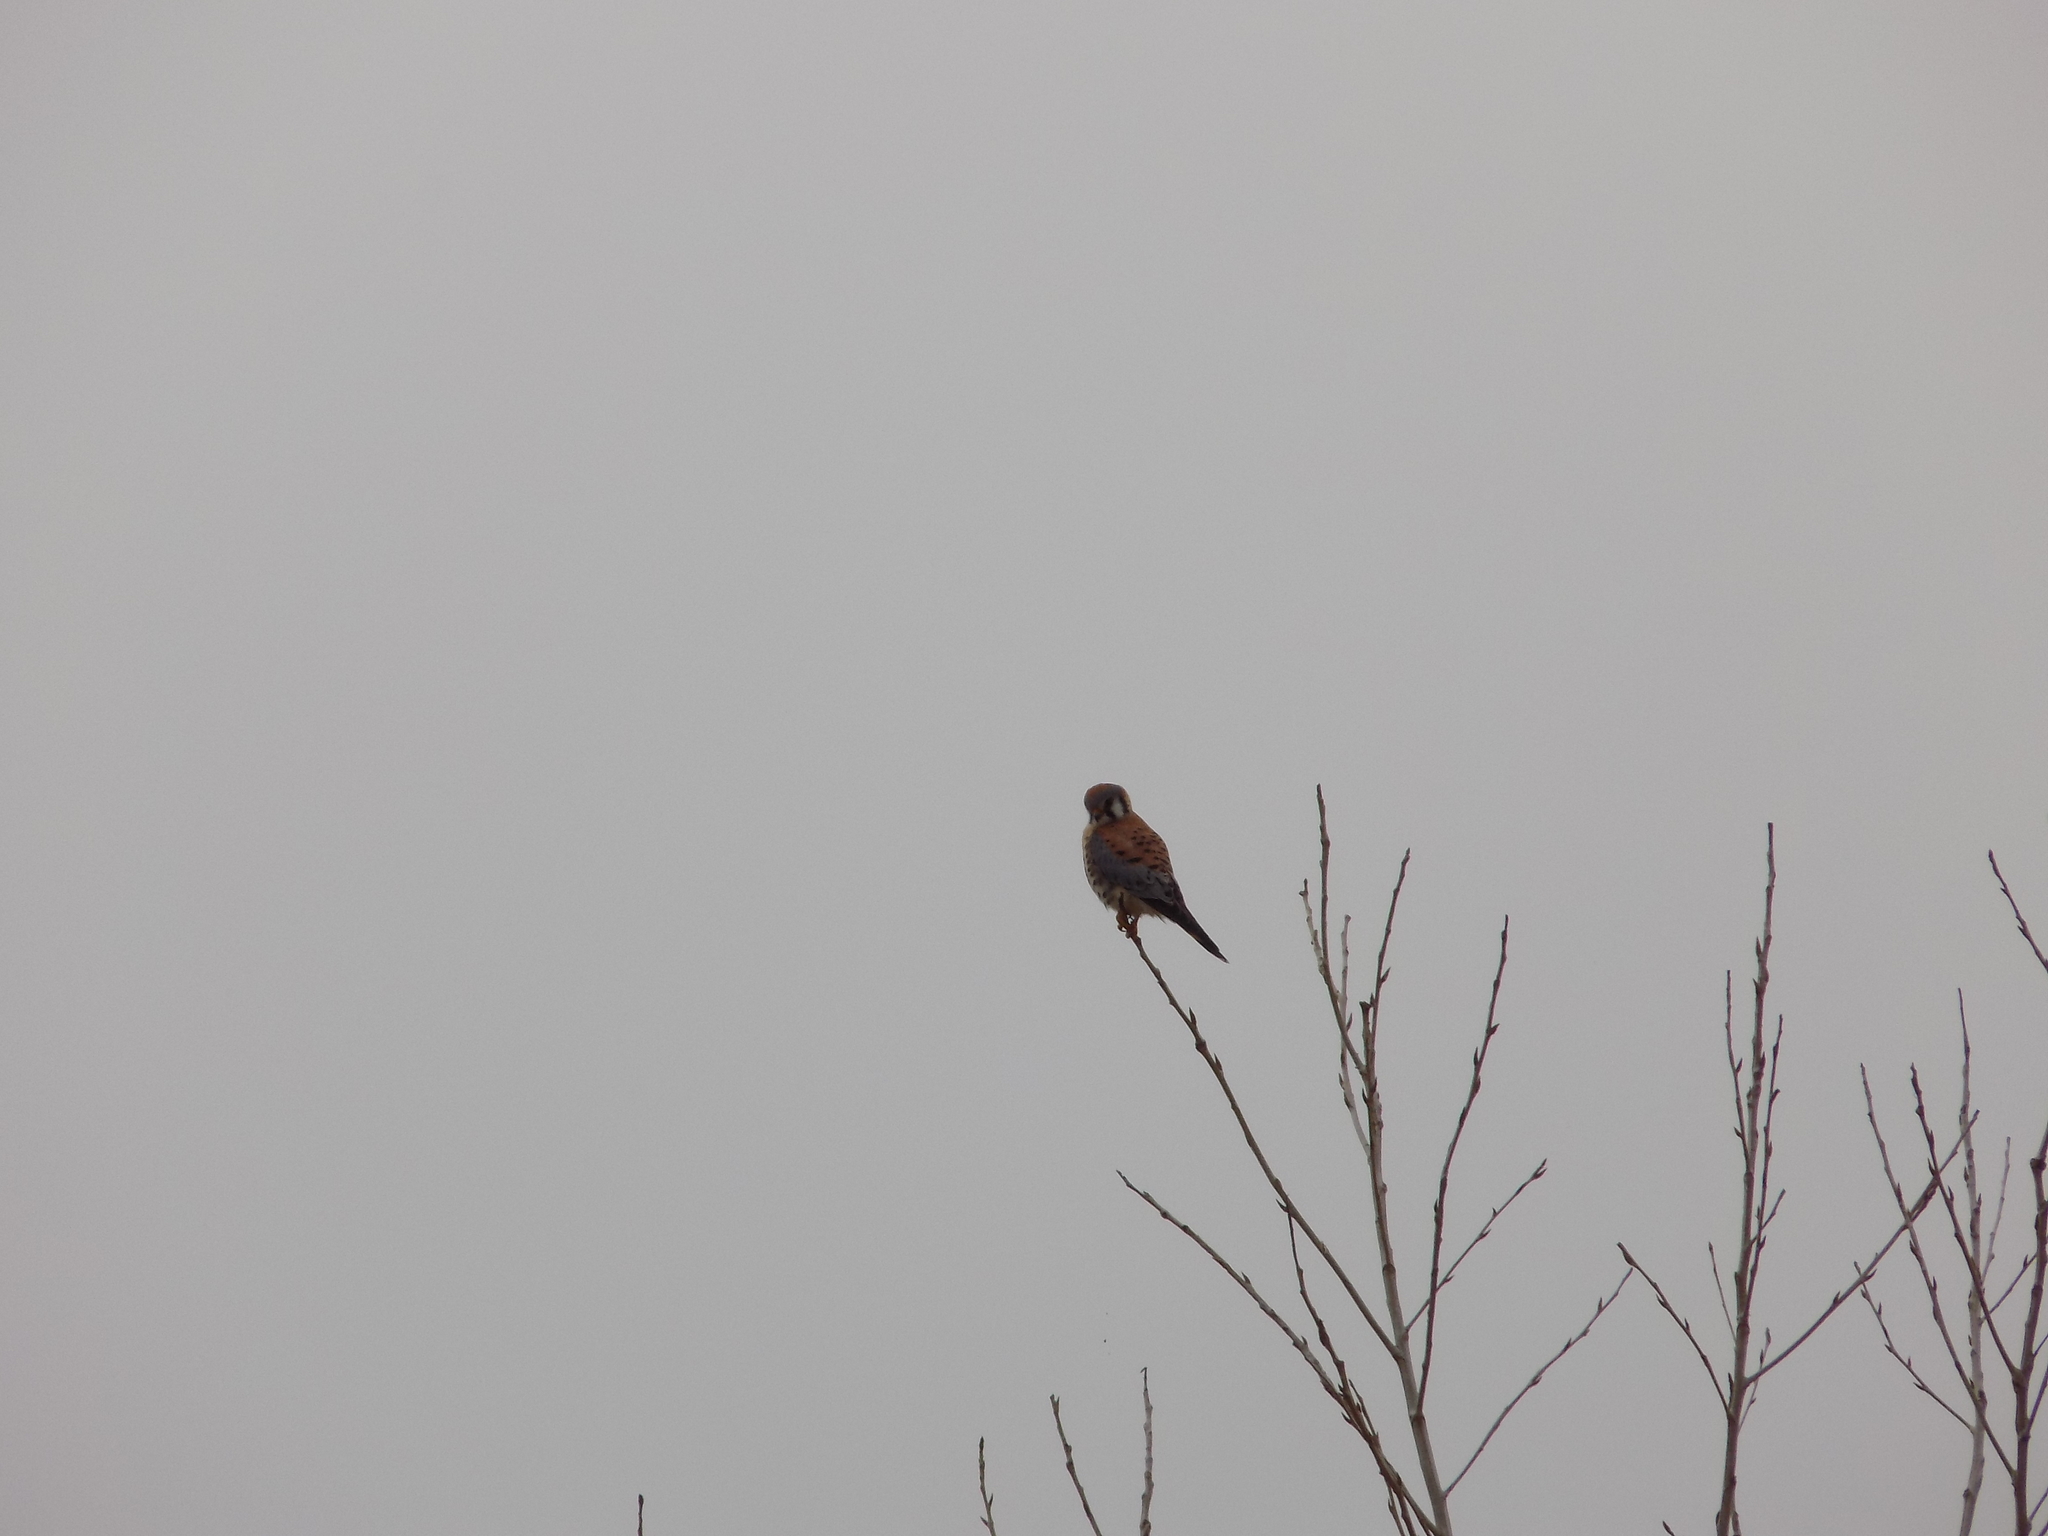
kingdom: Animalia
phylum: Chordata
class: Aves
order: Falconiformes
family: Falconidae
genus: Falco
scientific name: Falco sparverius
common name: American kestrel
